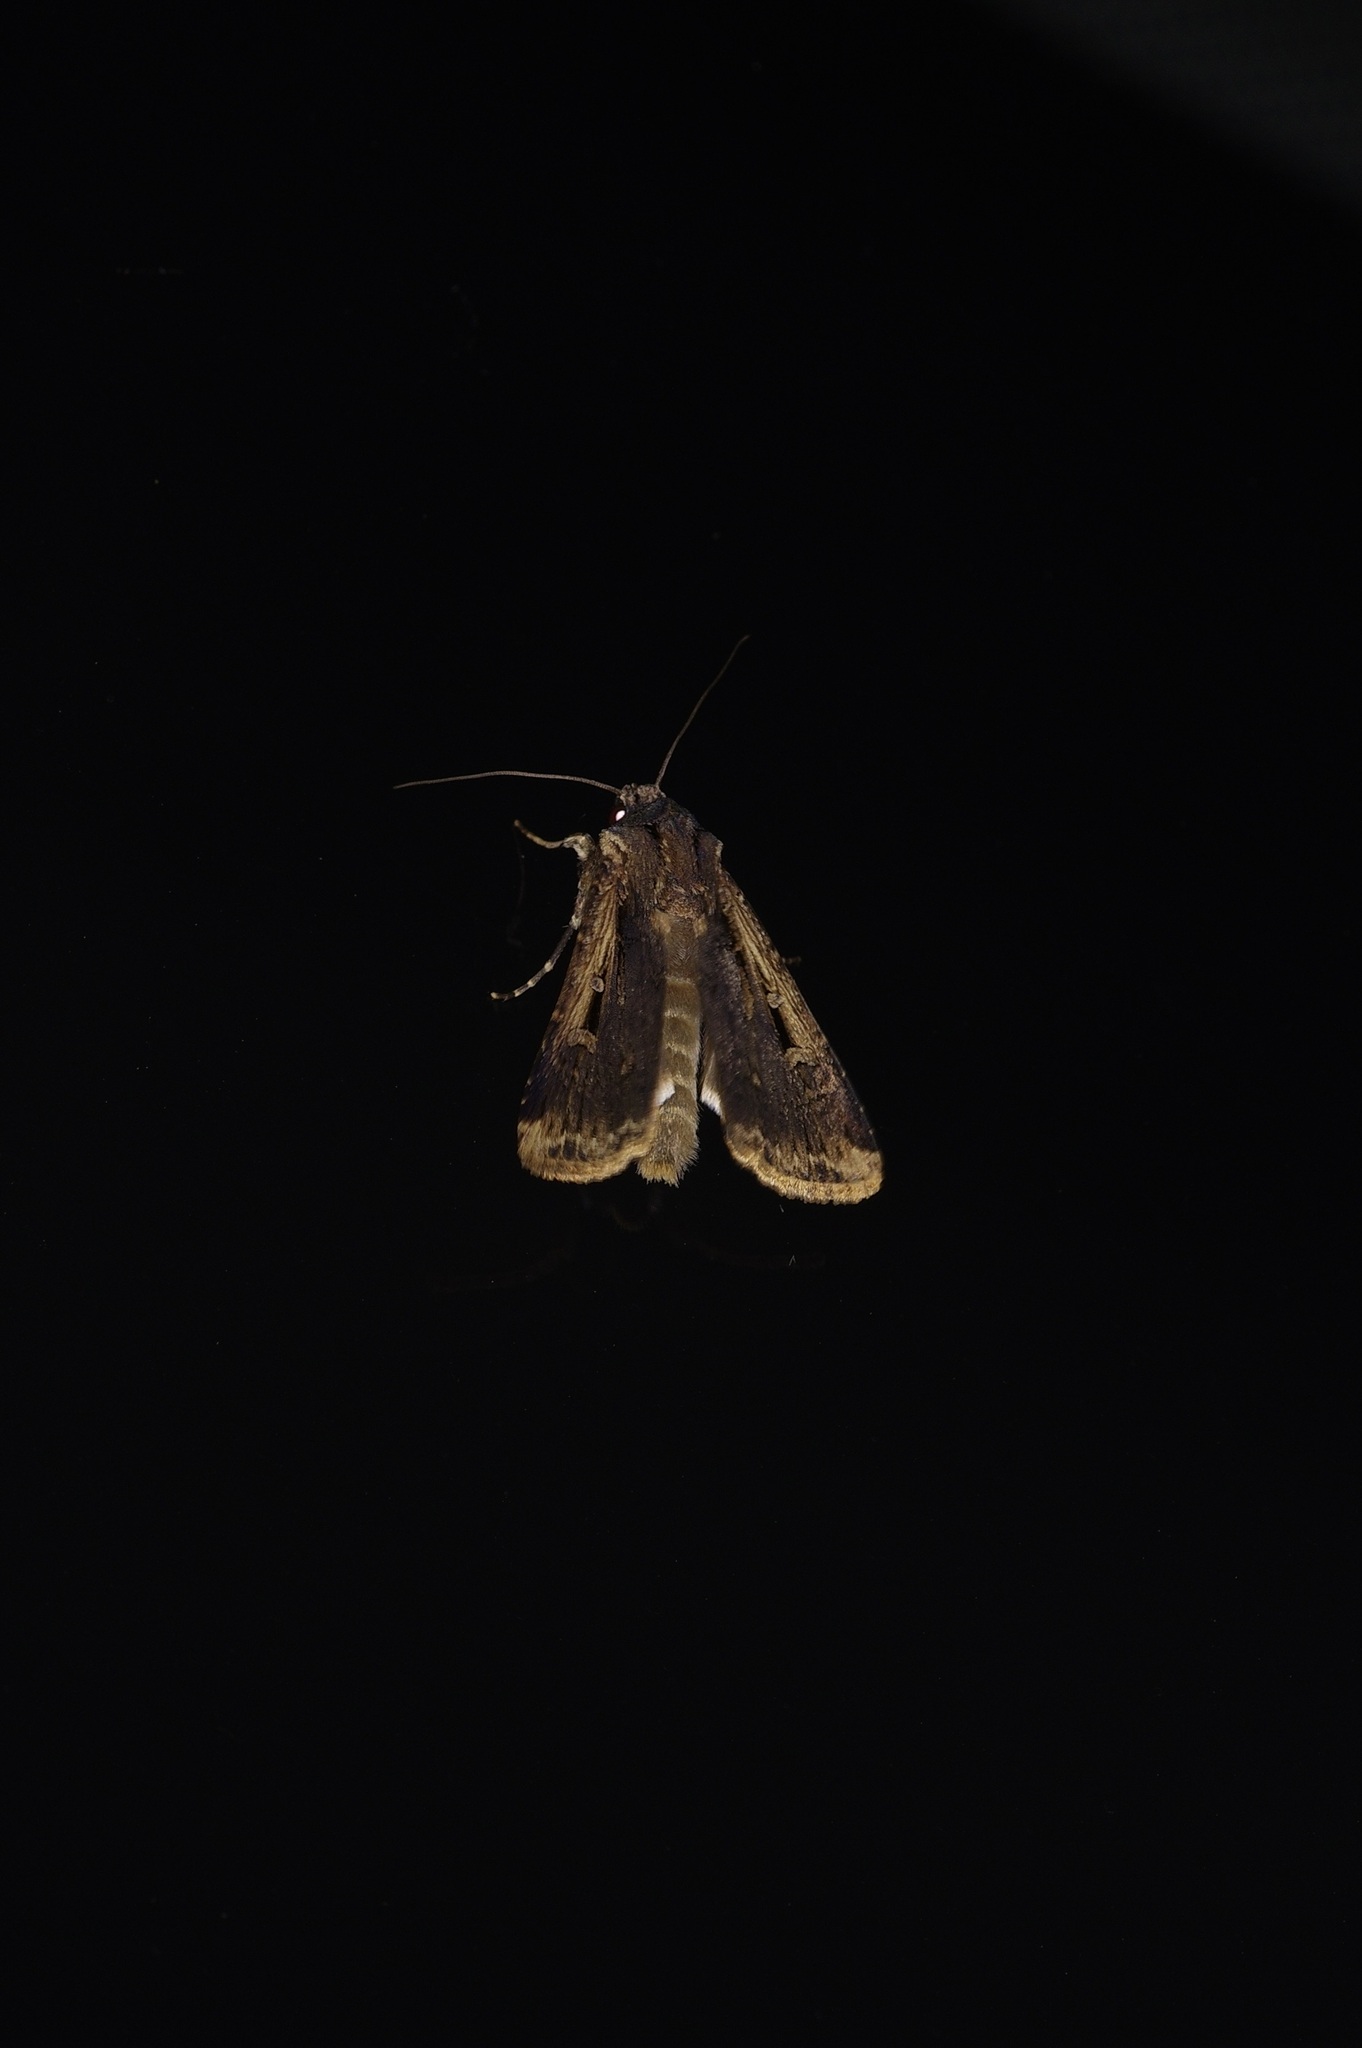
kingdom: Animalia
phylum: Arthropoda
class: Insecta
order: Lepidoptera
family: Noctuidae
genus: Feltia
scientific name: Feltia subterranea
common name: Granulate cutworm
